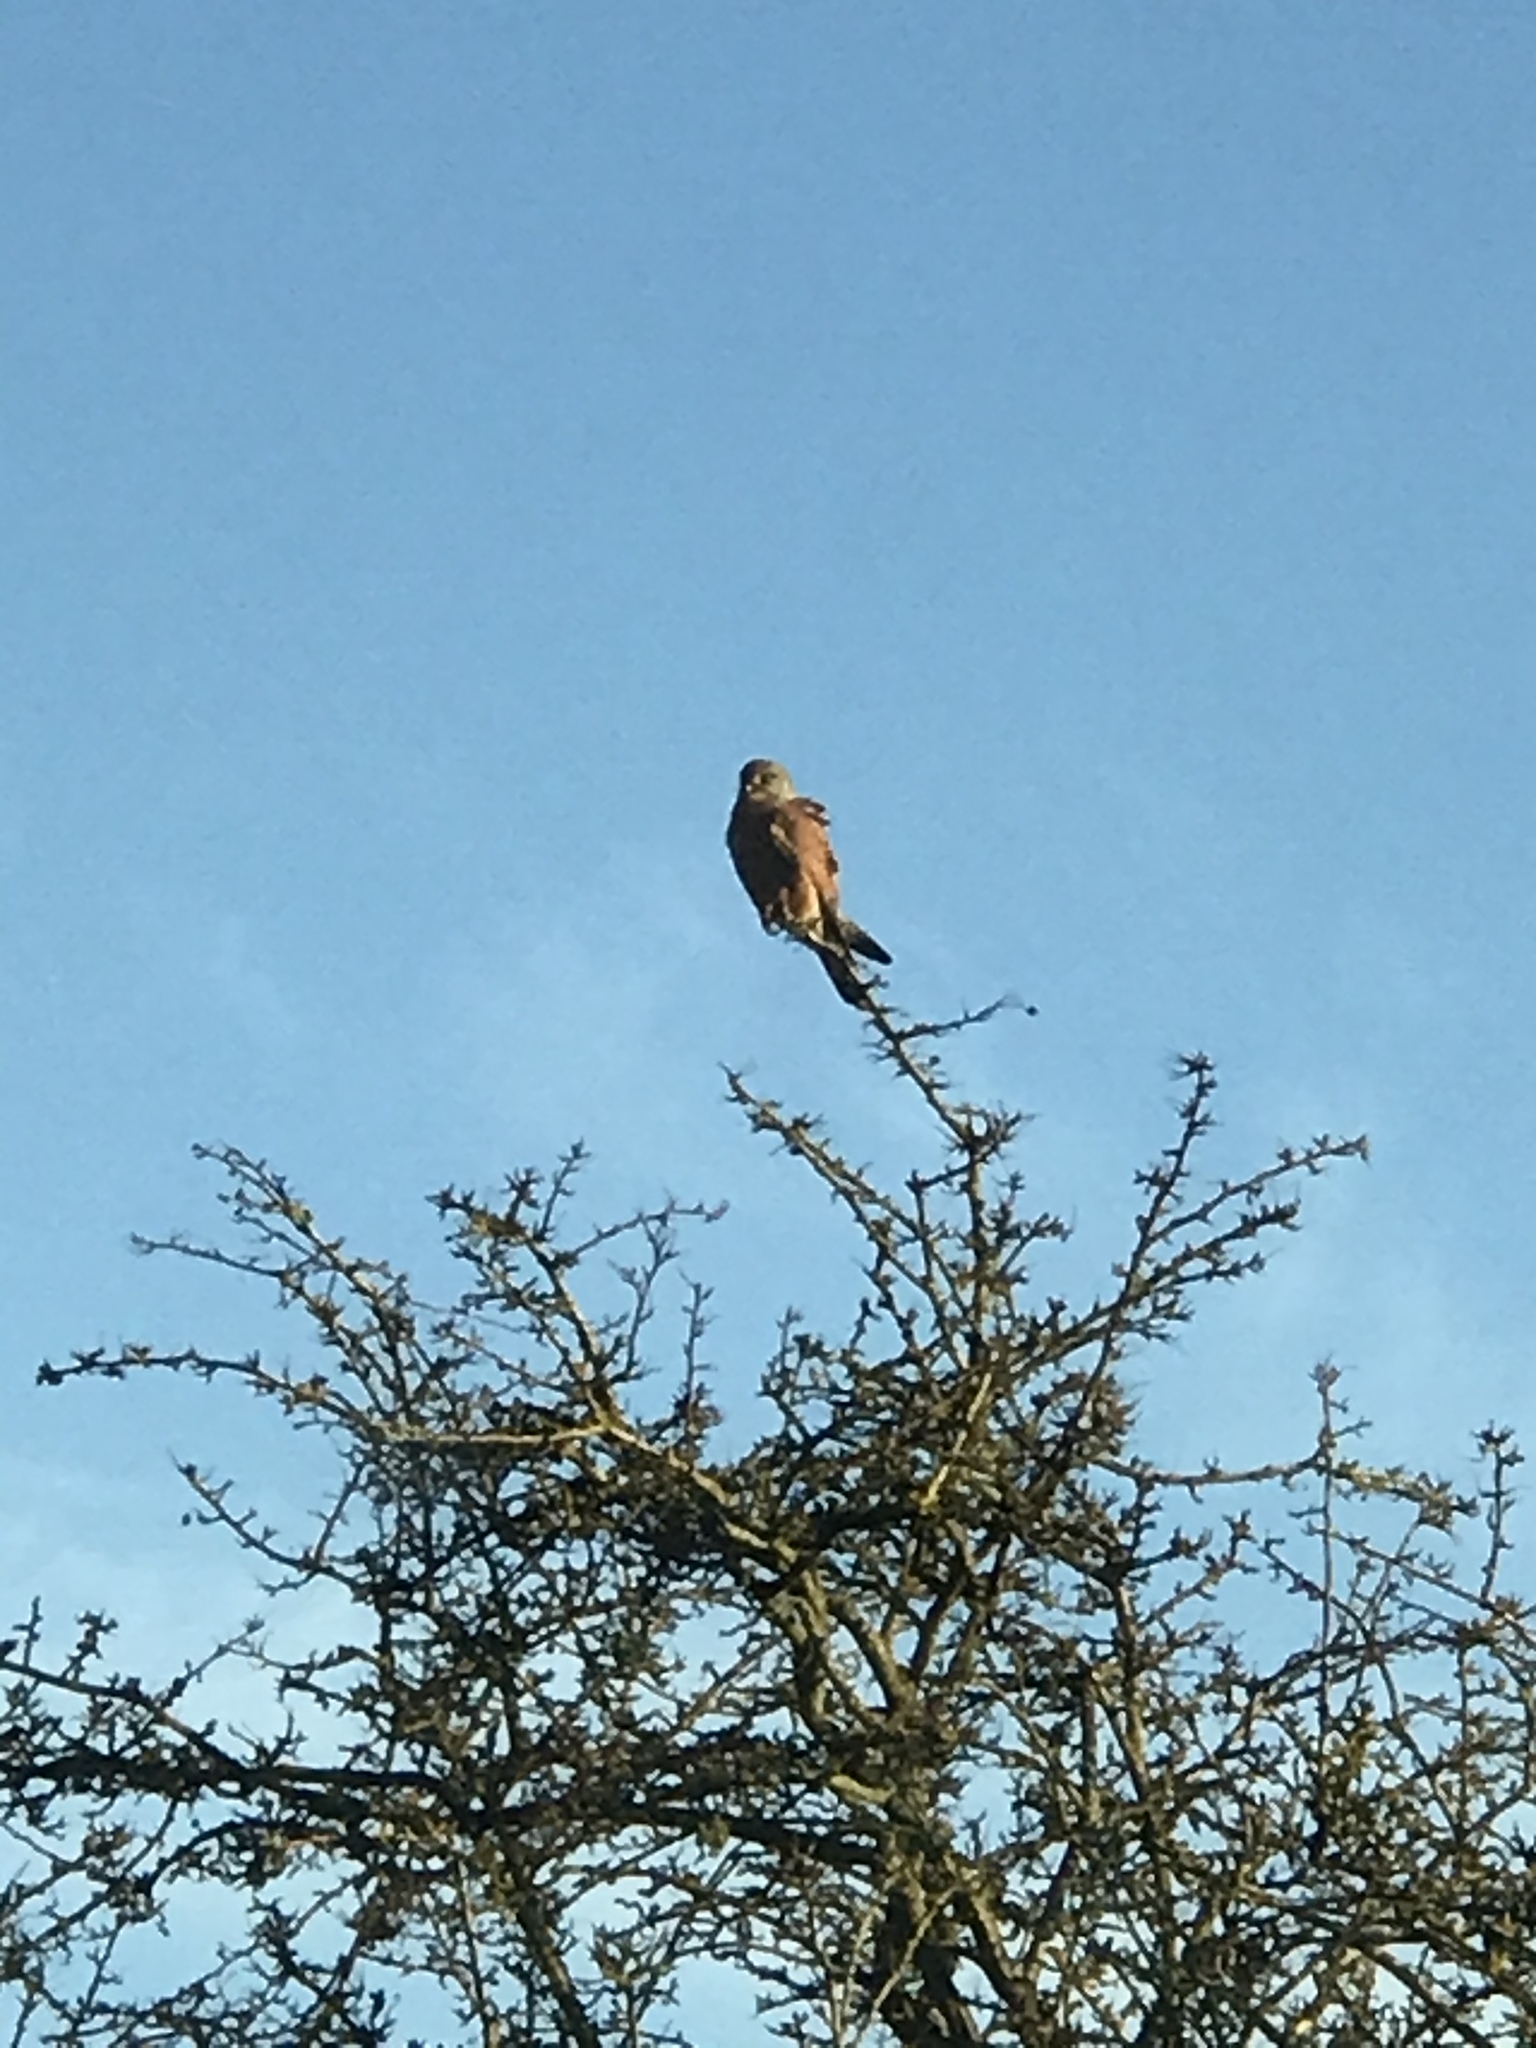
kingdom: Animalia
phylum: Chordata
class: Aves
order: Falconiformes
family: Falconidae
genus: Falco
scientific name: Falco tinnunculus
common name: Common kestrel
